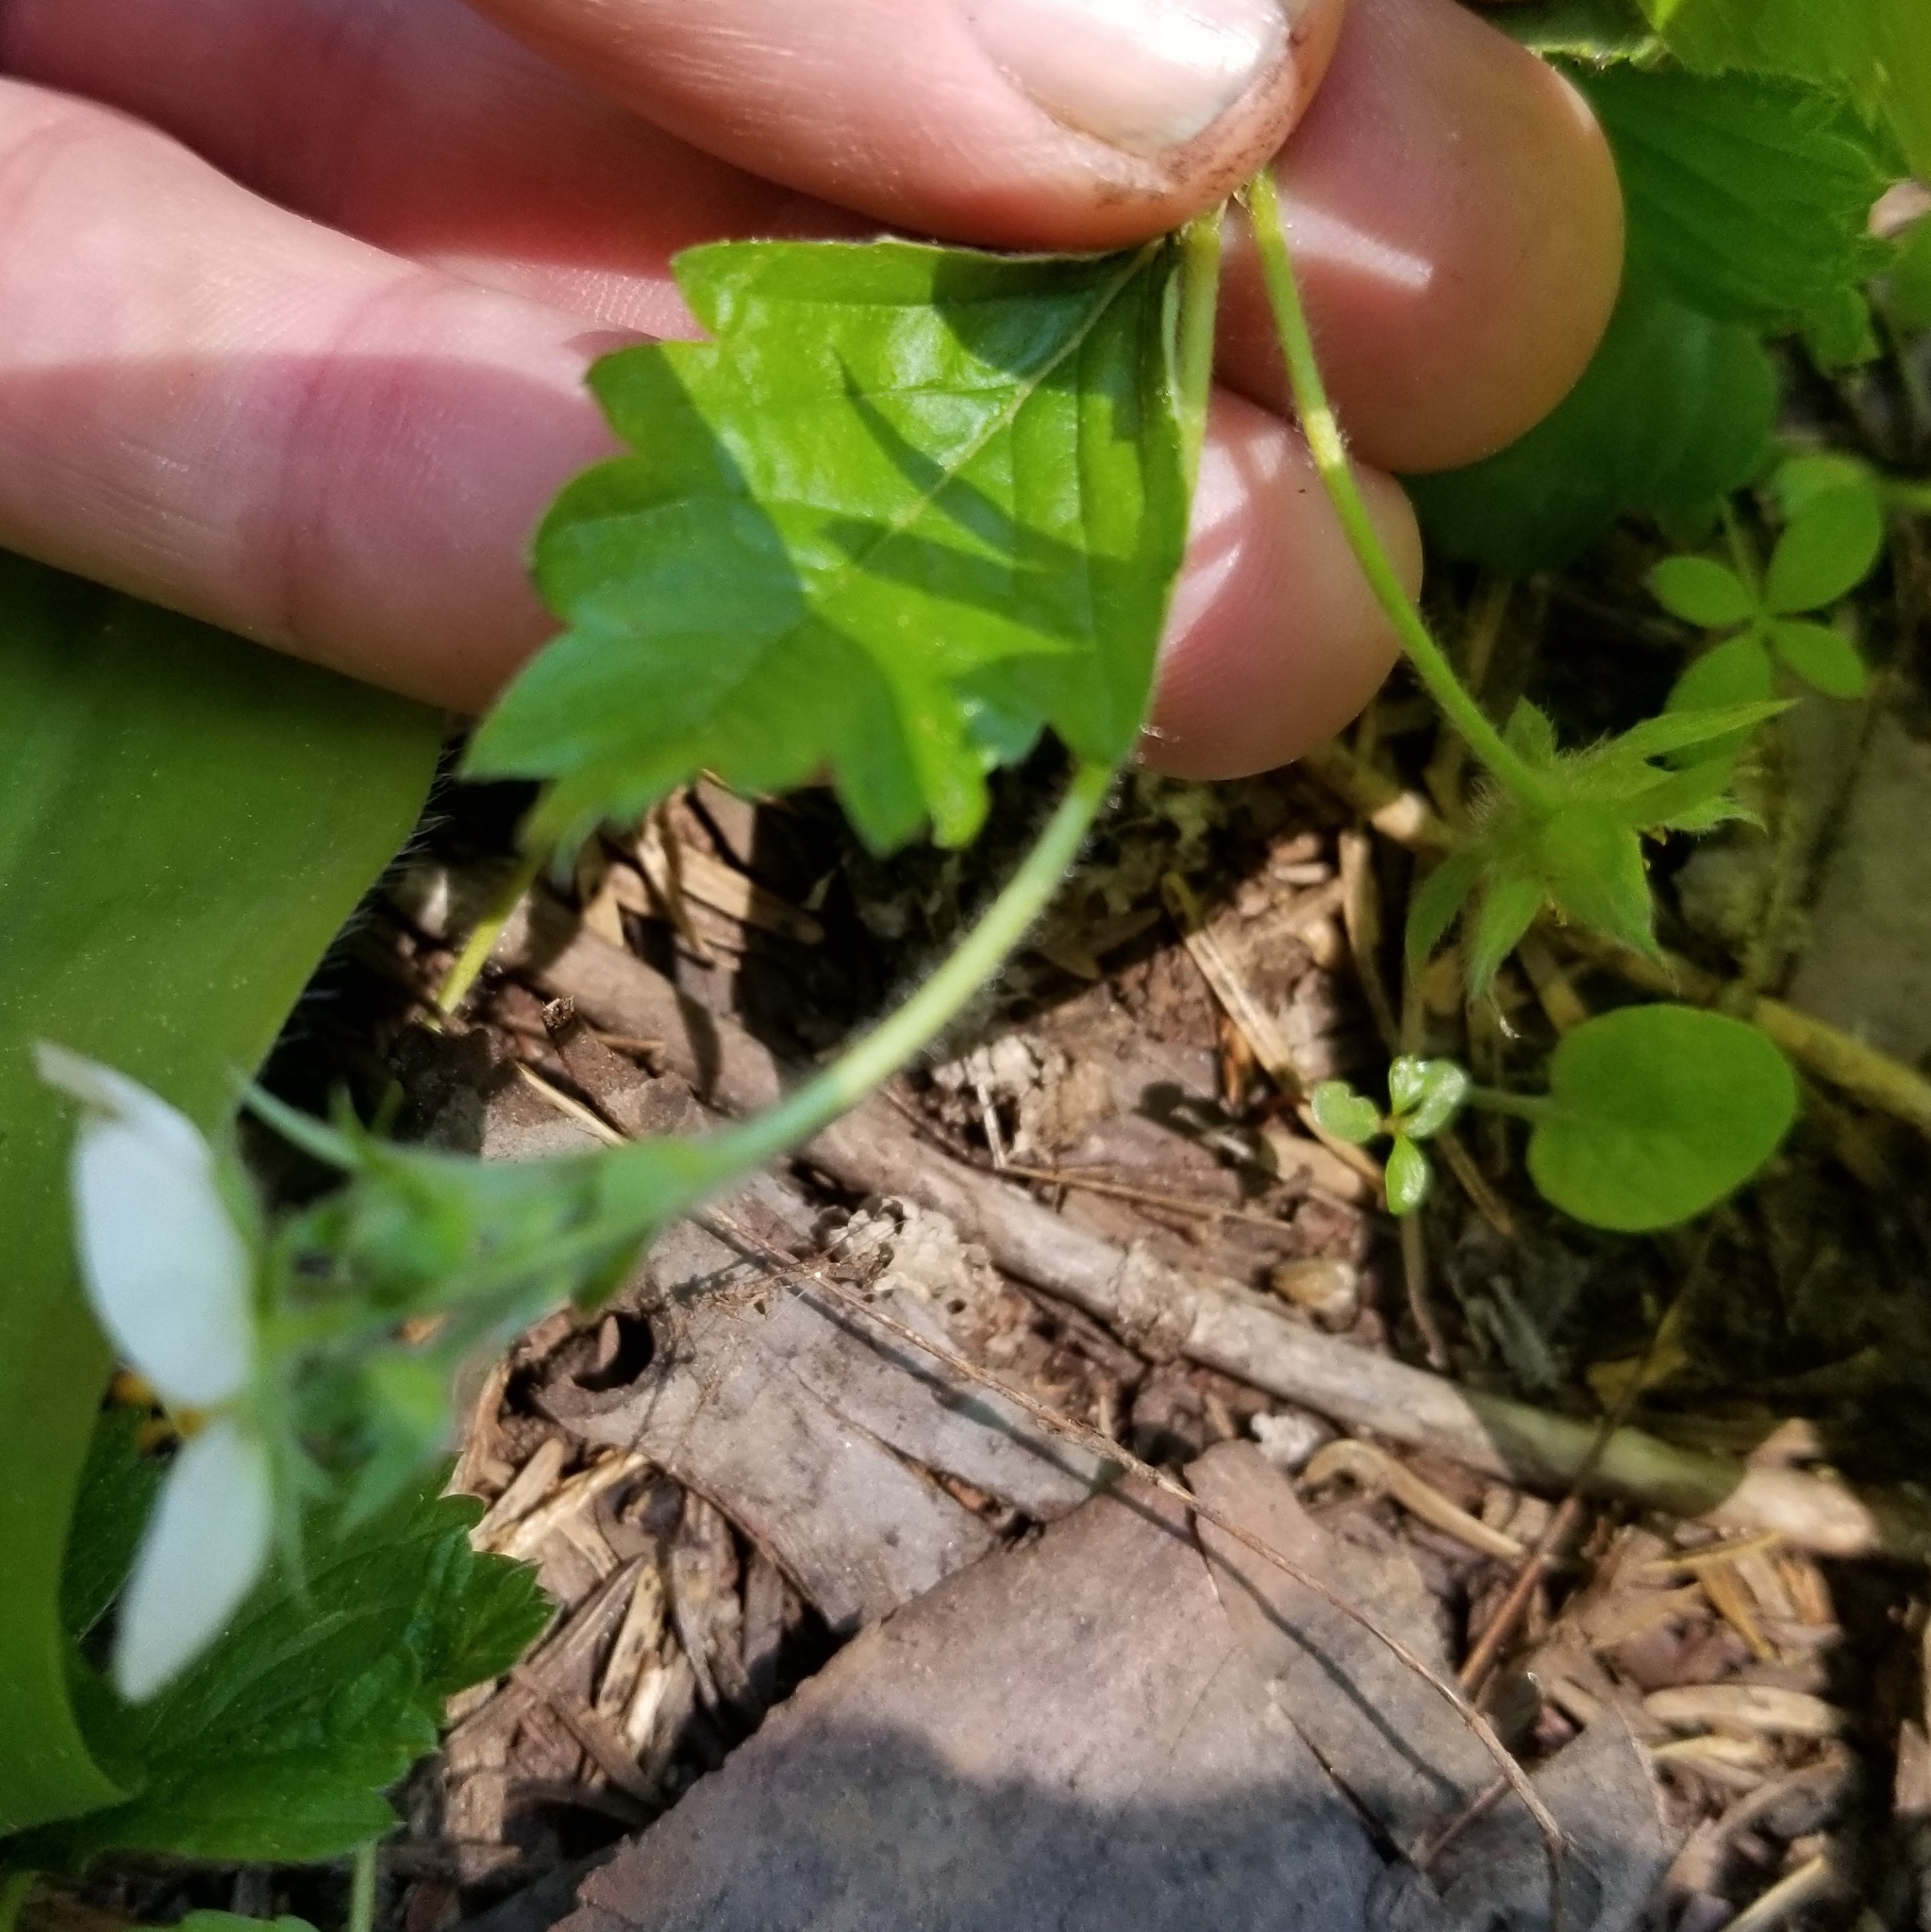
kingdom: Plantae
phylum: Tracheophyta
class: Magnoliopsida
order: Rosales
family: Rosaceae
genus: Fragaria
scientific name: Fragaria vesca
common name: Wild strawberry
